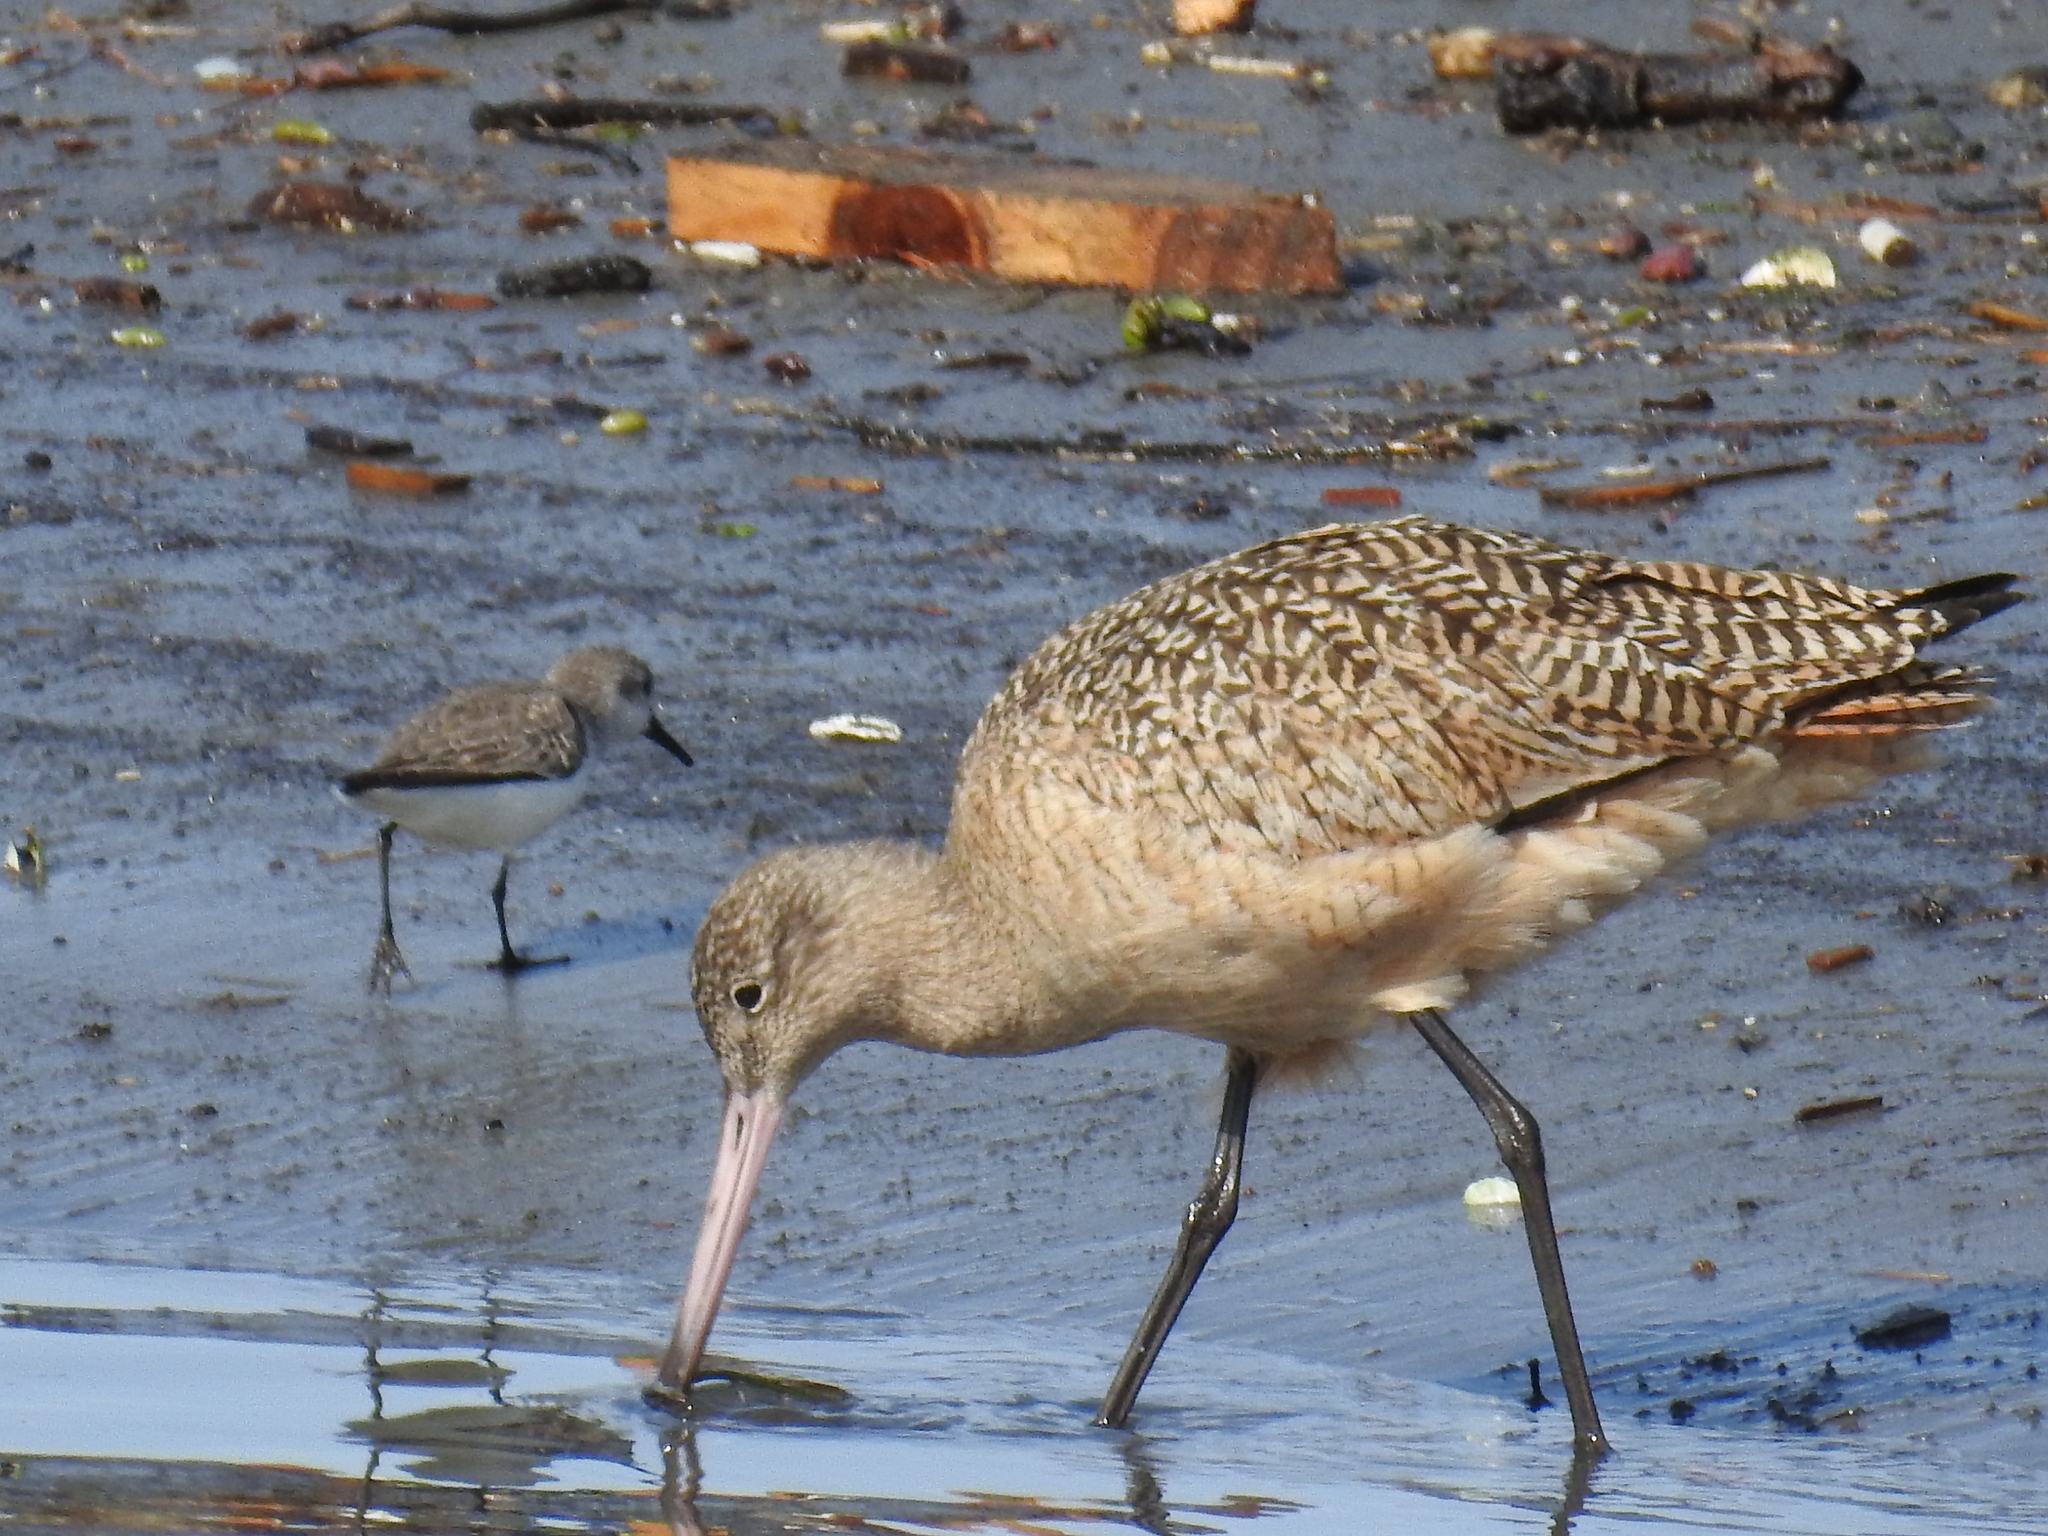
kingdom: Animalia
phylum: Chordata
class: Aves
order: Charadriiformes
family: Scolopacidae
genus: Limosa
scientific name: Limosa fedoa
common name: Marbled godwit
